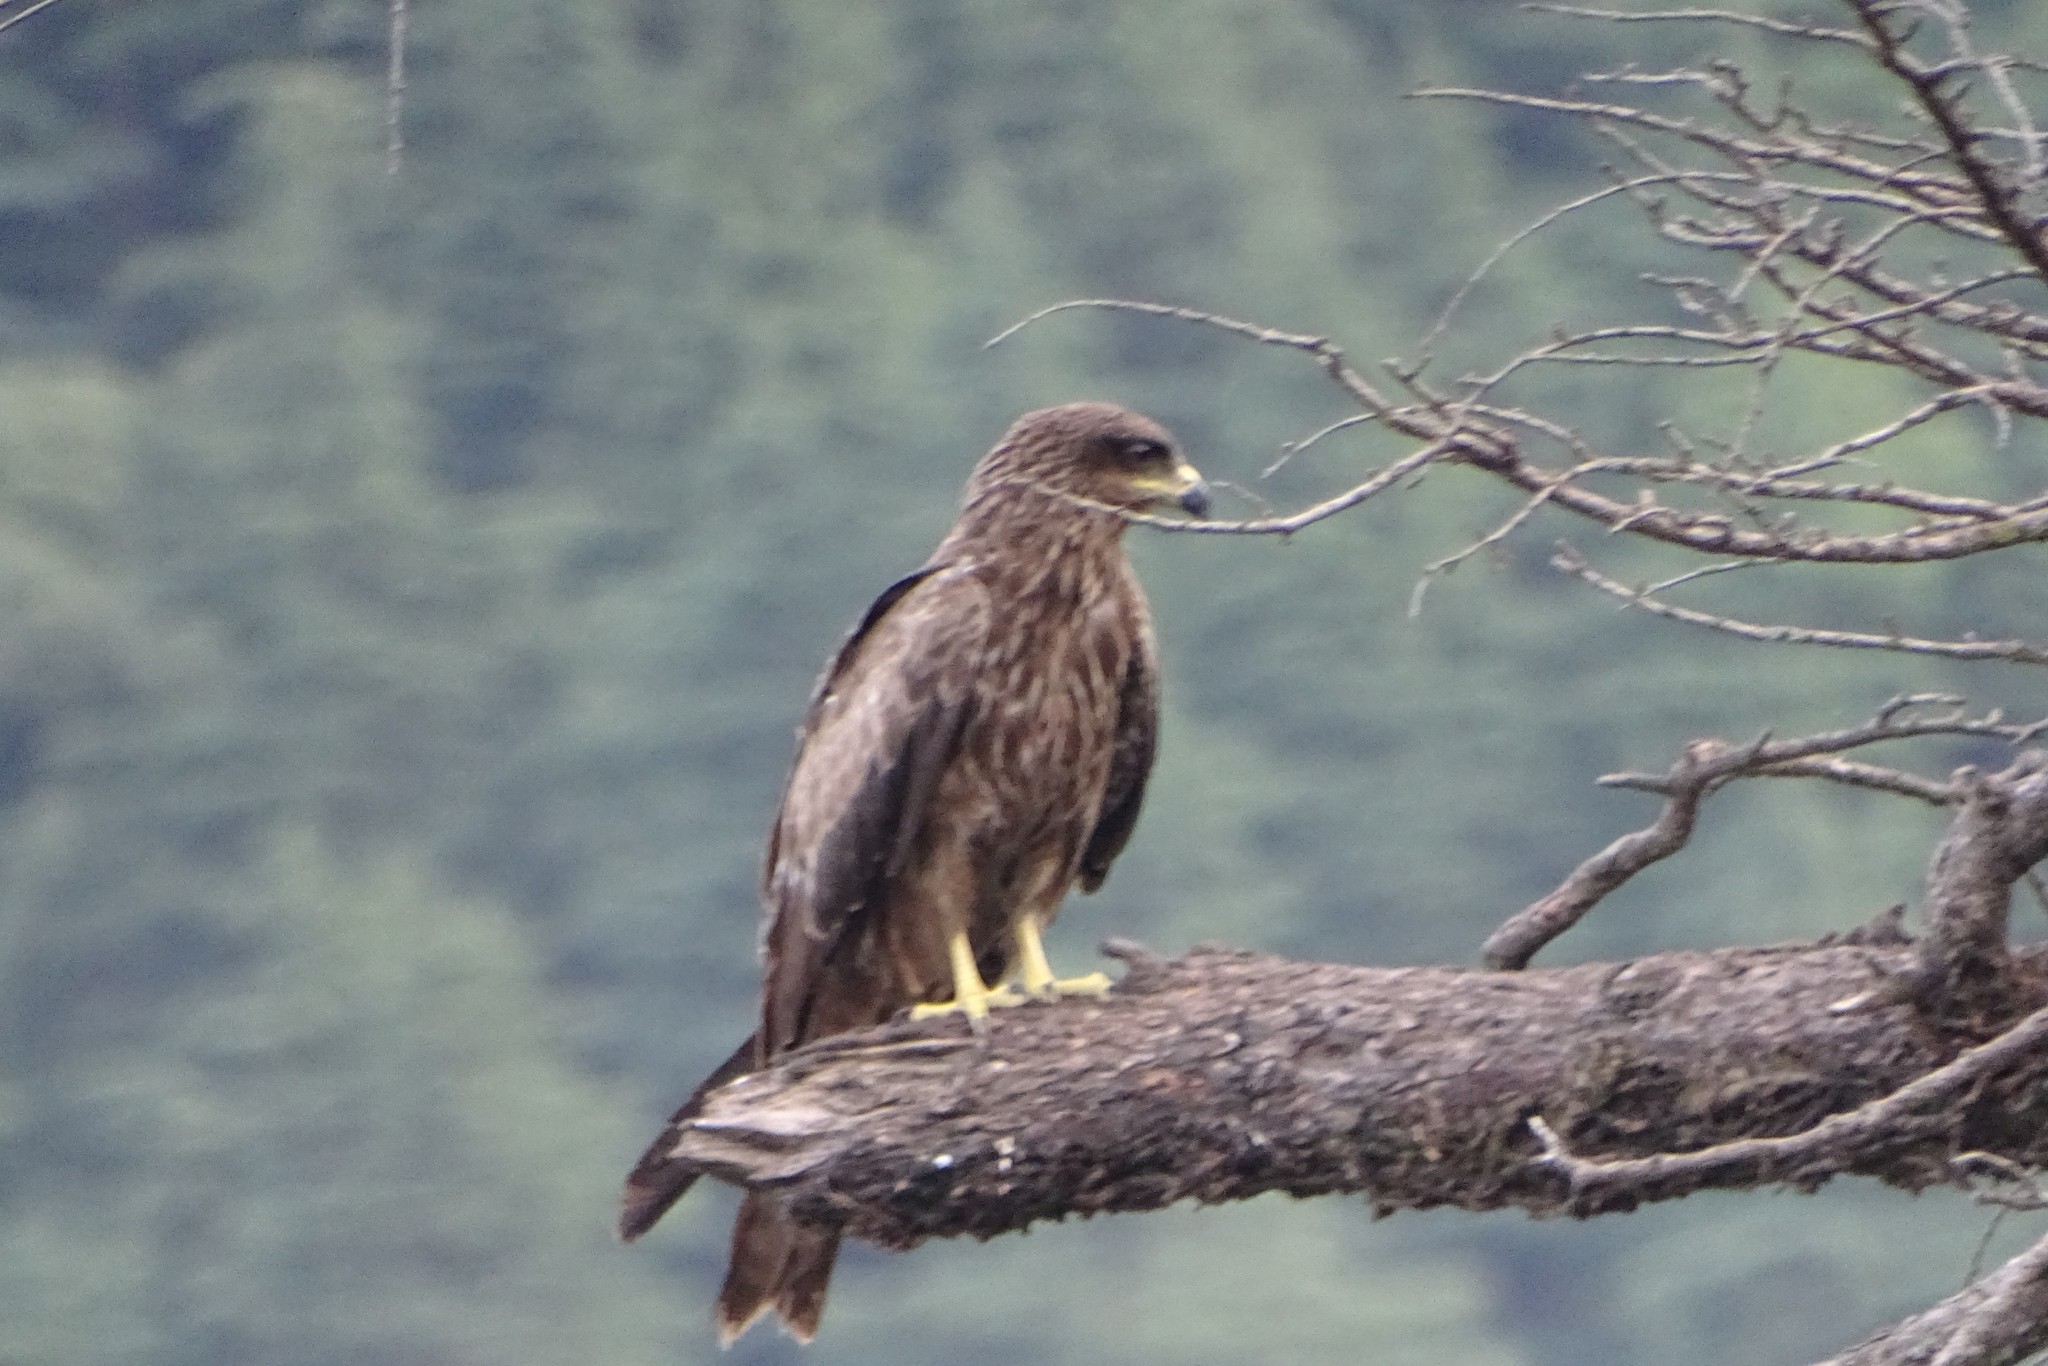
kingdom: Animalia
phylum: Chordata
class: Aves
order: Accipitriformes
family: Accipitridae
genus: Milvus
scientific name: Milvus migrans
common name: Black kite
